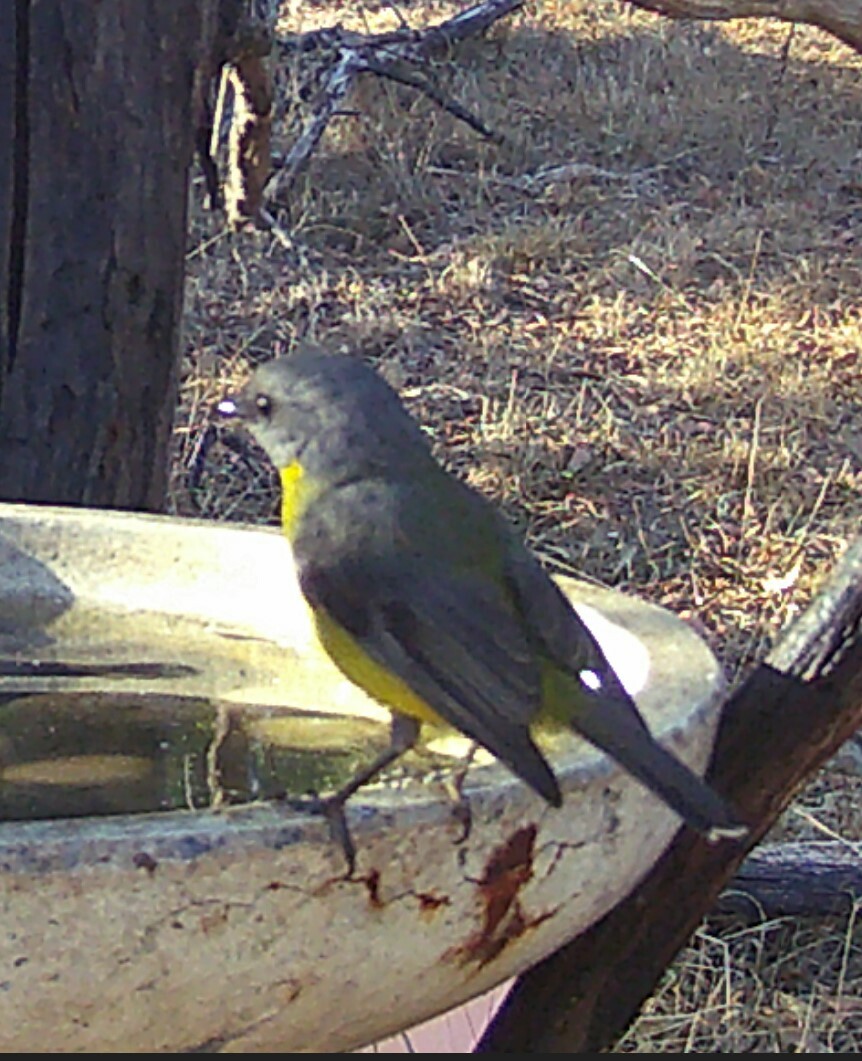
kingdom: Animalia
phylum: Chordata
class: Aves
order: Passeriformes
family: Petroicidae
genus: Eopsaltria
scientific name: Eopsaltria australis
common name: Eastern yellow robin
